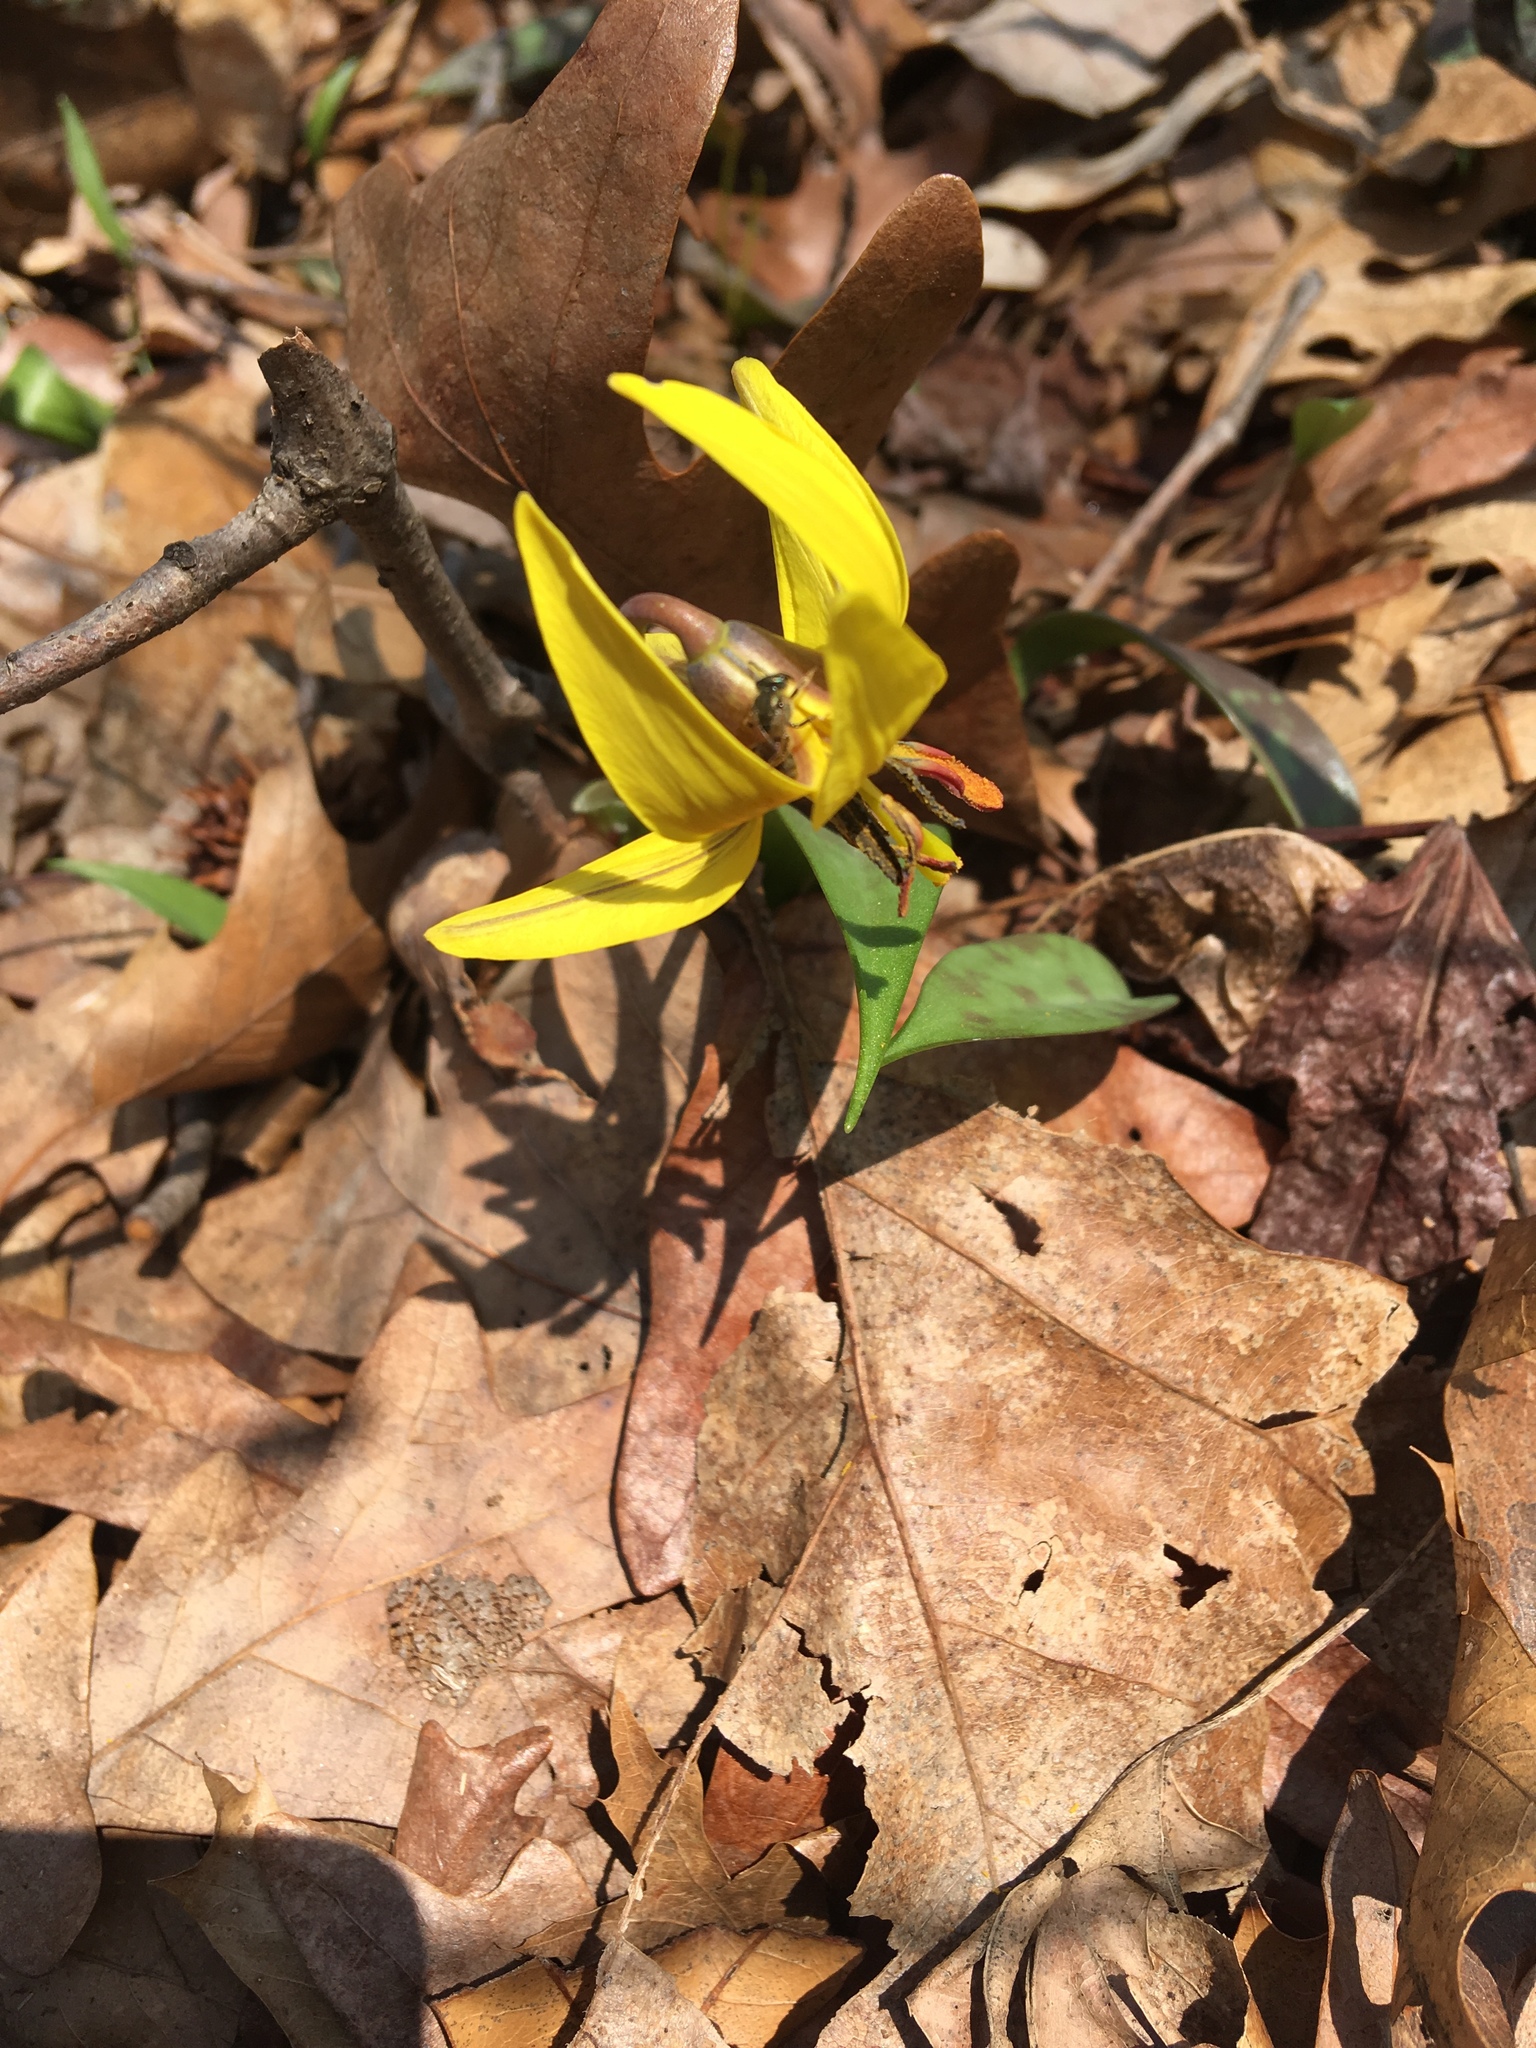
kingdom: Plantae
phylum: Tracheophyta
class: Liliopsida
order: Liliales
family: Liliaceae
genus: Erythronium
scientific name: Erythronium americanum
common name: Yellow adder's-tongue
